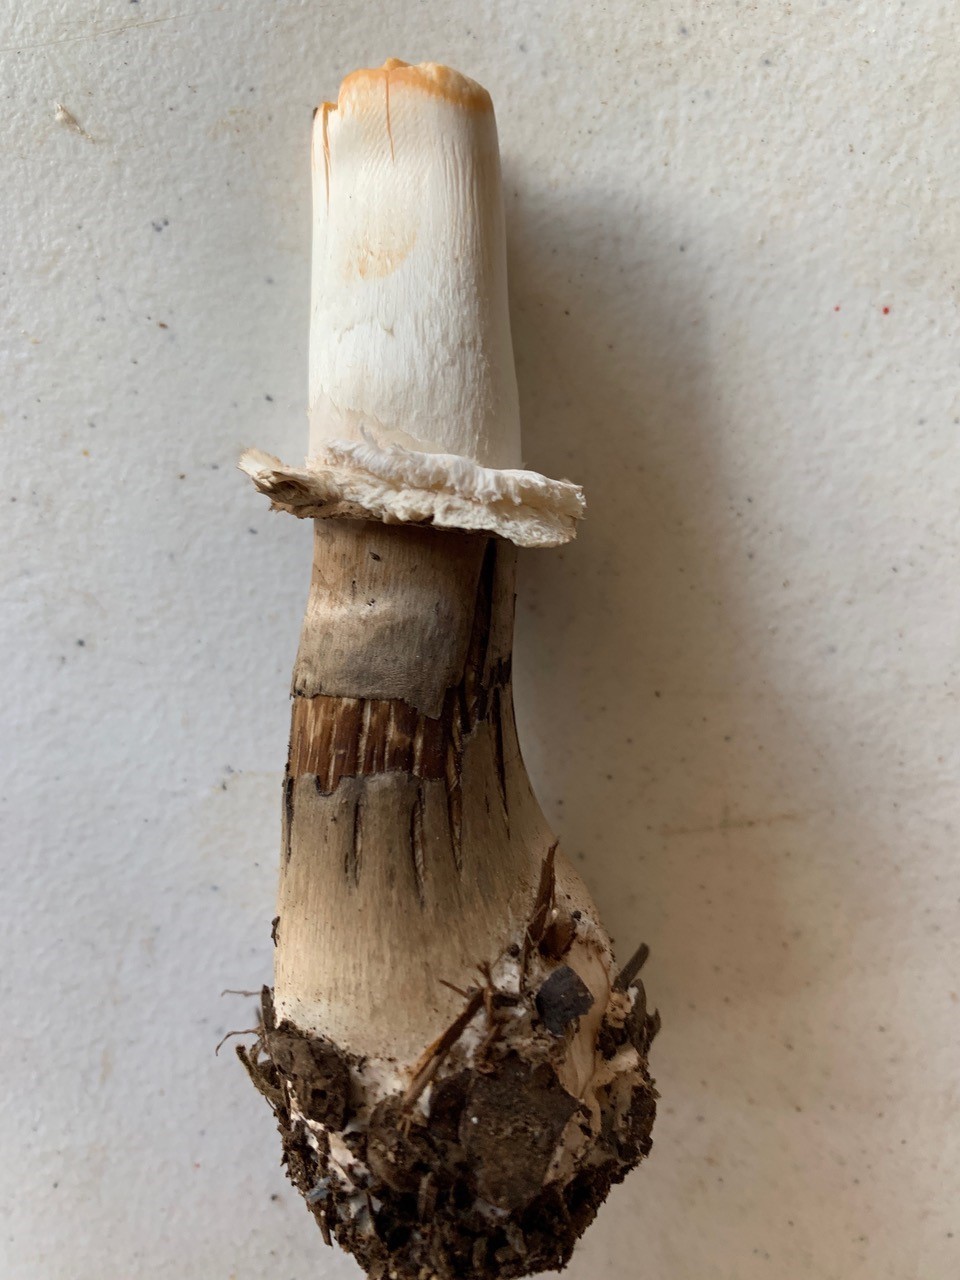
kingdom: Fungi
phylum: Basidiomycota
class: Agaricomycetes
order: Agaricales
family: Agaricaceae
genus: Chlorophyllum
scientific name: Chlorophyllum rhacodes
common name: Shaggy parasol
